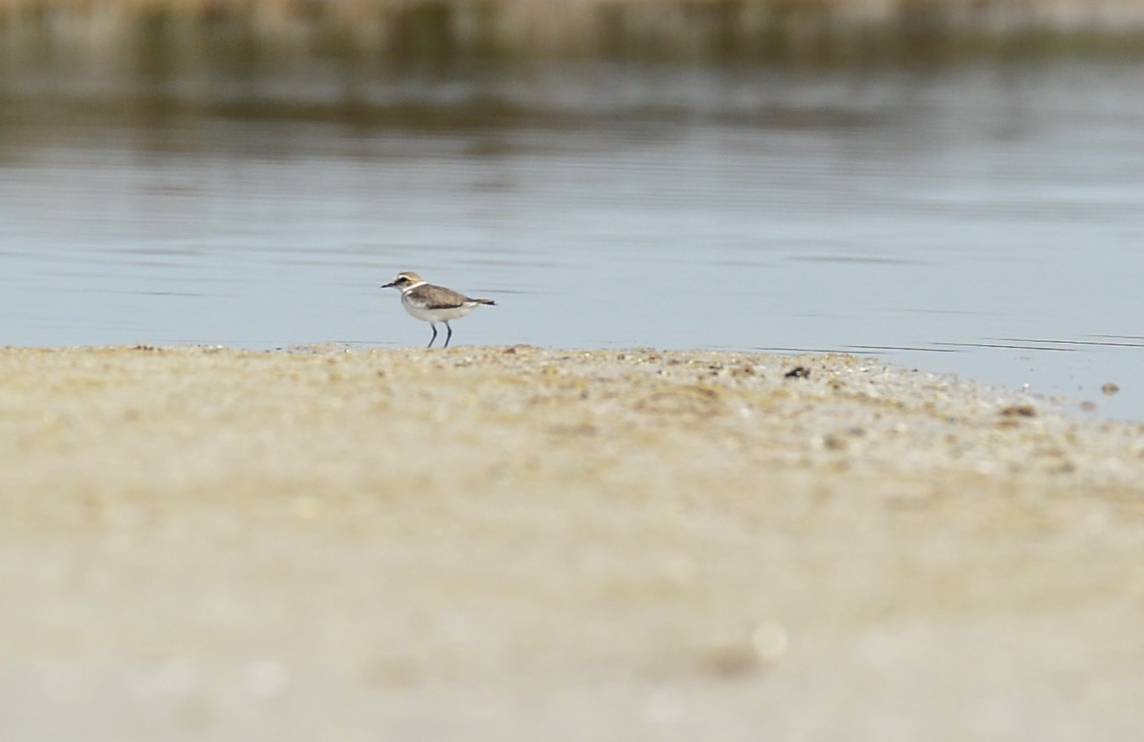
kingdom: Animalia
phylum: Chordata
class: Aves
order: Charadriiformes
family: Charadriidae
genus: Charadrius
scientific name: Charadrius alexandrinus
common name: Kentish plover
